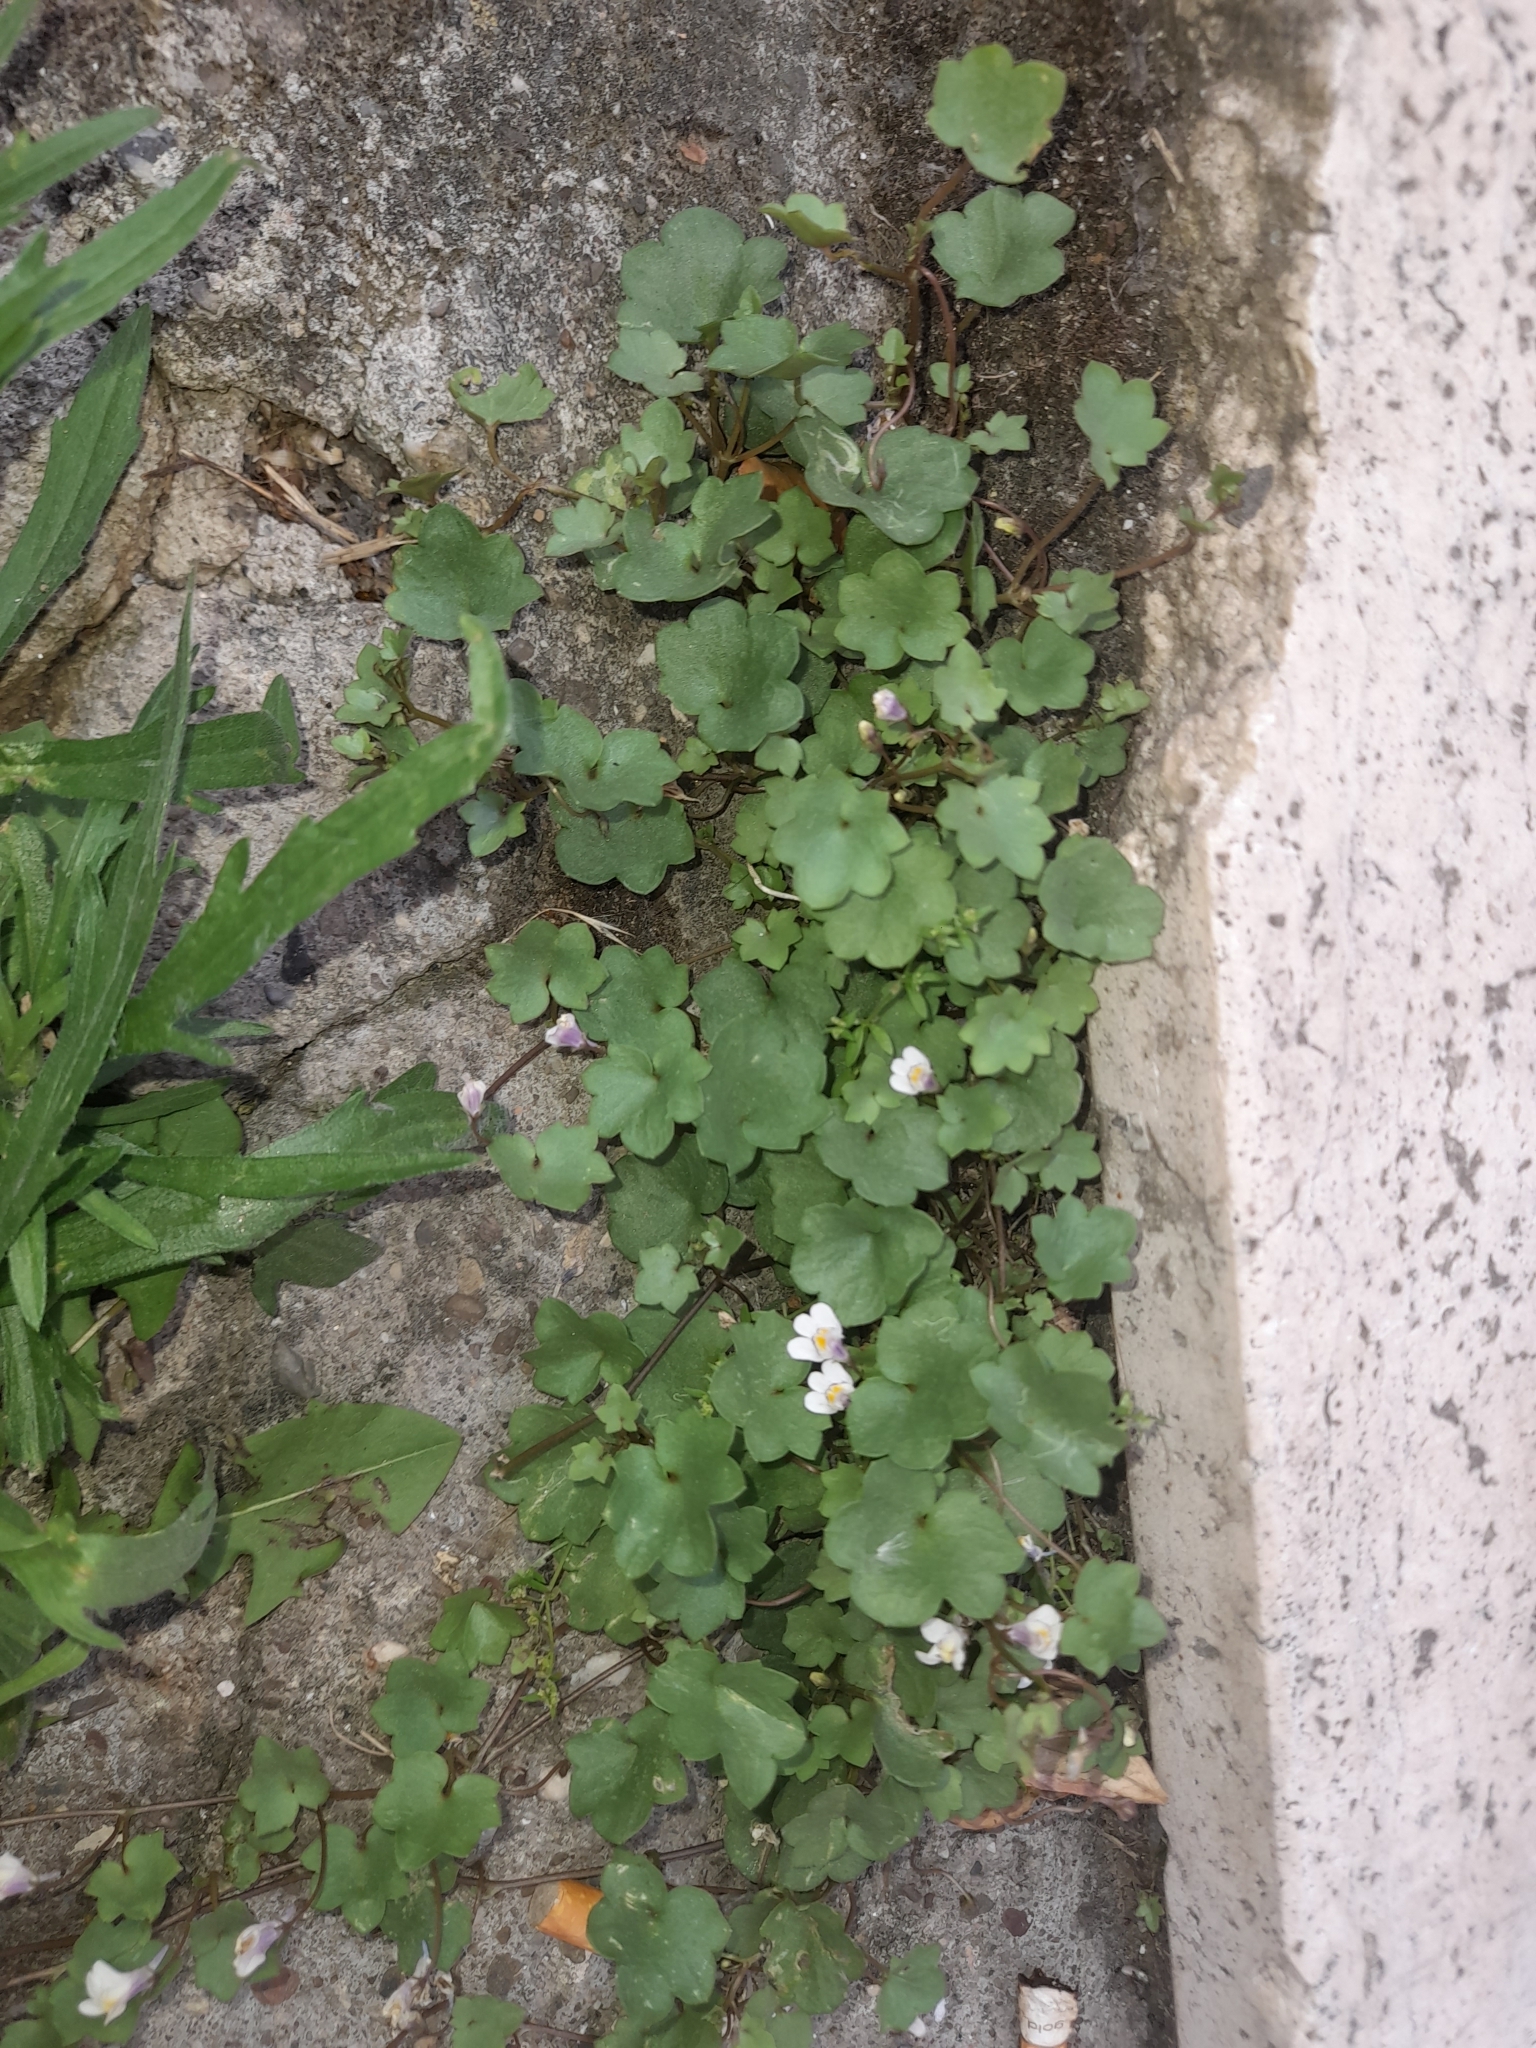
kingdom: Plantae
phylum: Tracheophyta
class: Magnoliopsida
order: Lamiales
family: Plantaginaceae
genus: Cymbalaria
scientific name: Cymbalaria muralis
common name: Ivy-leaved toadflax
